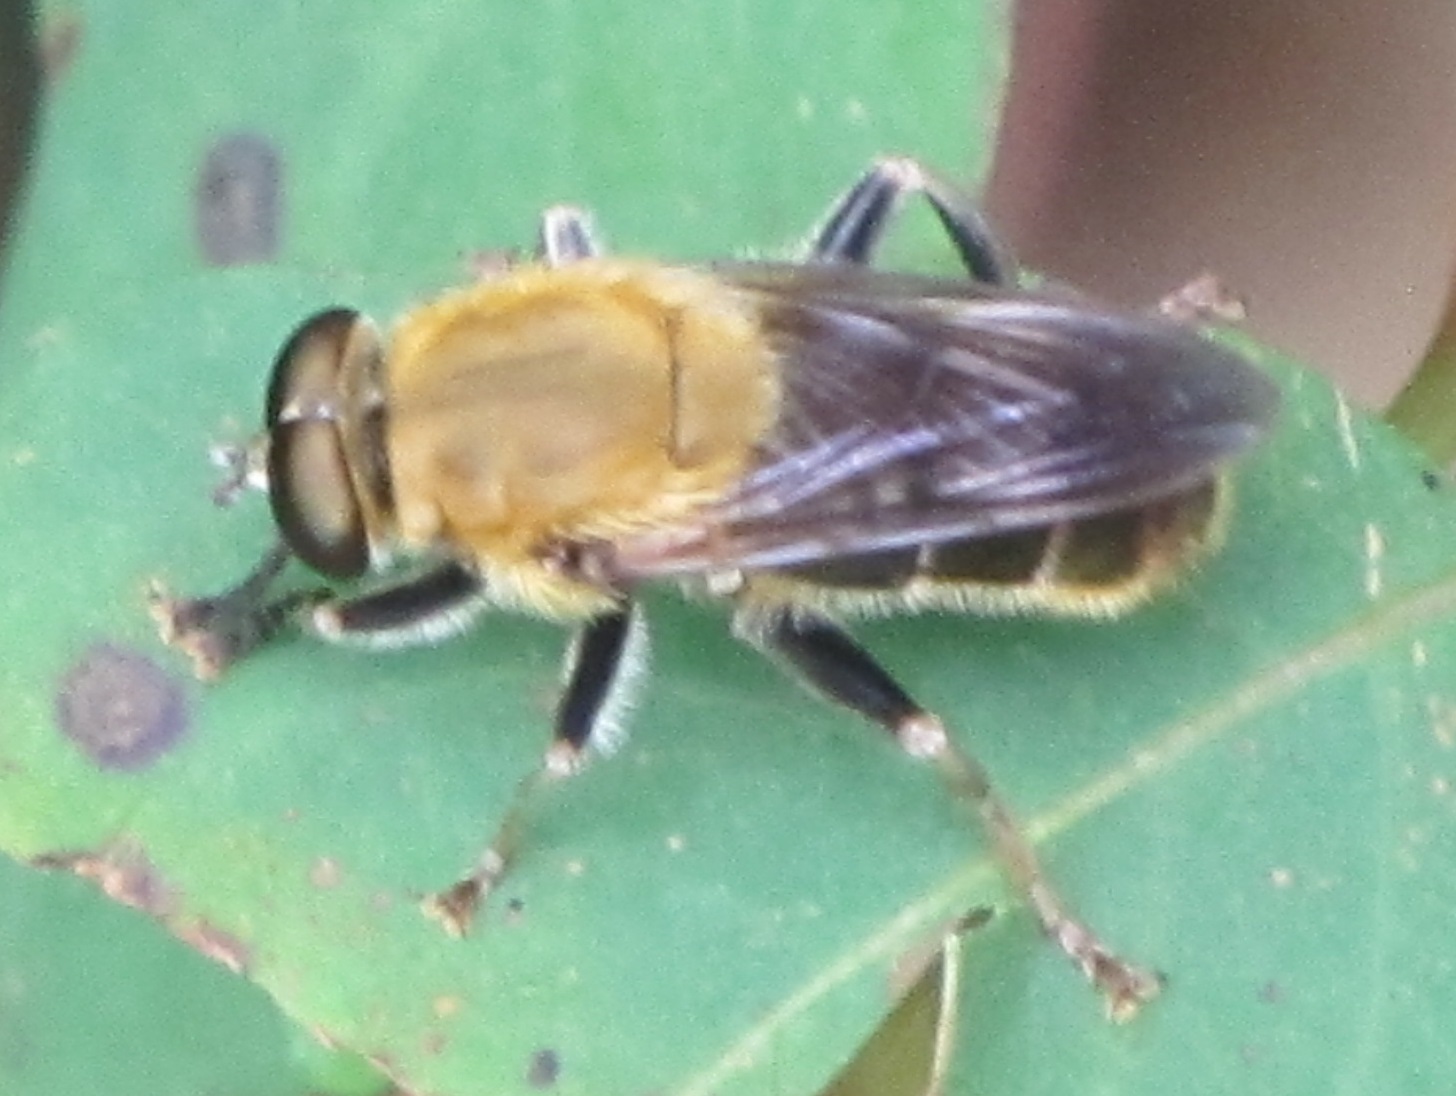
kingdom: Animalia
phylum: Arthropoda
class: Insecta
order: Diptera
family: Syrphidae
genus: Pterallastes
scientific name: Pterallastes thoracicus
